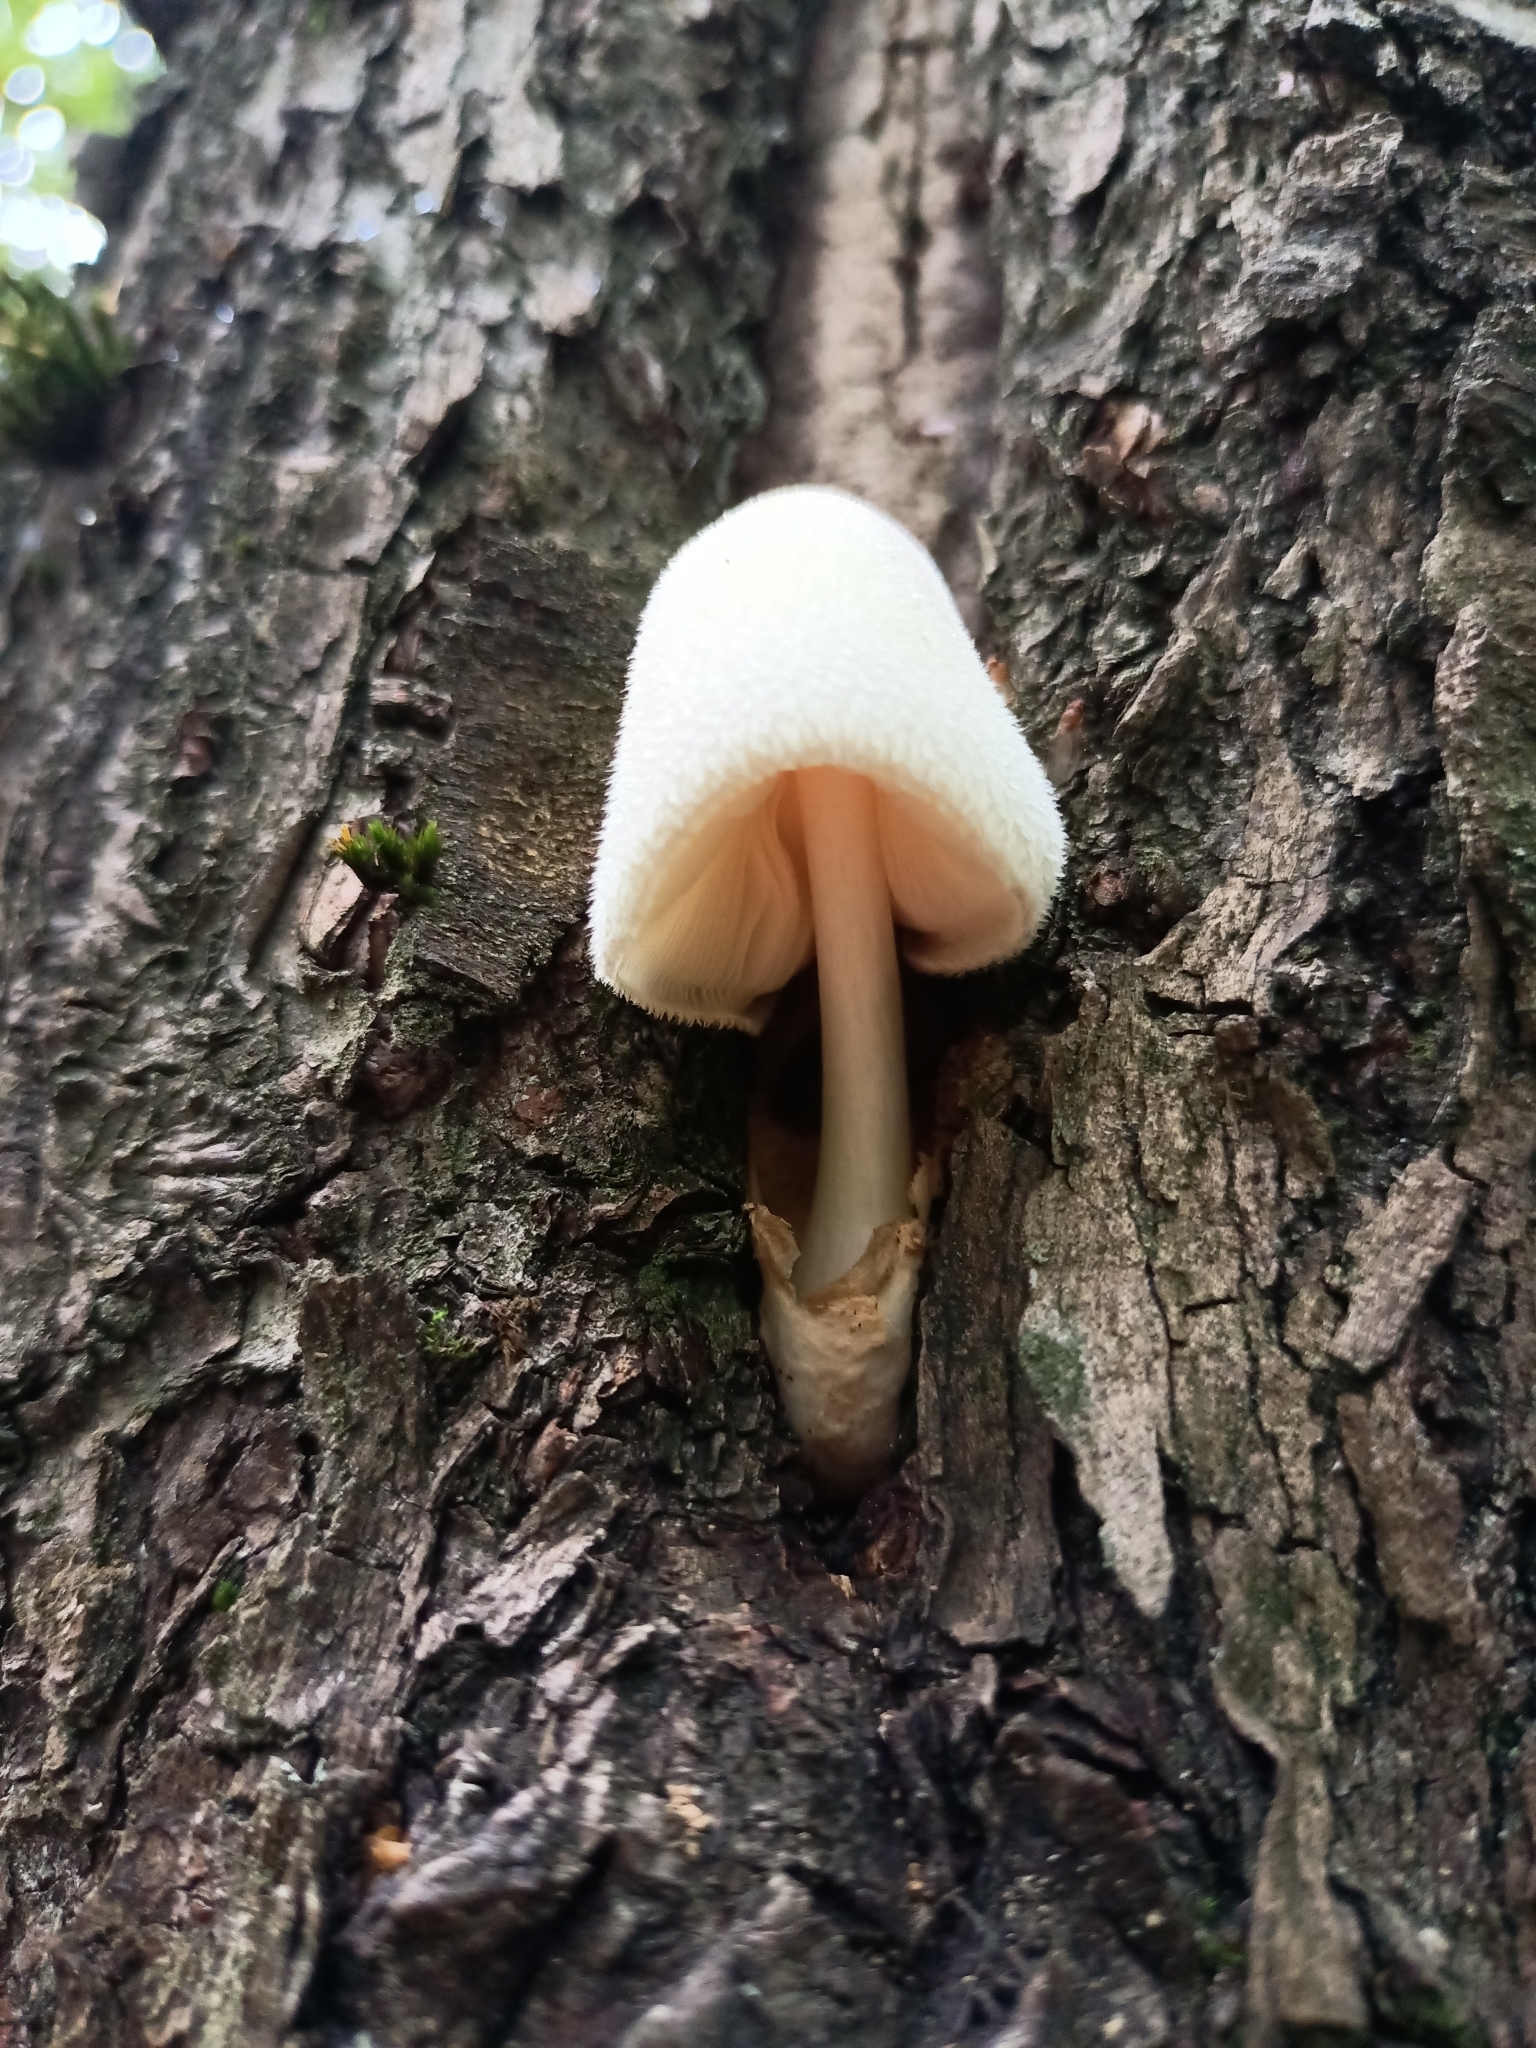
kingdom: Fungi
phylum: Basidiomycota
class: Agaricomycetes
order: Agaricales
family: Pluteaceae
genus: Volvariella
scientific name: Volvariella bombycina
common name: Silky rosegill
